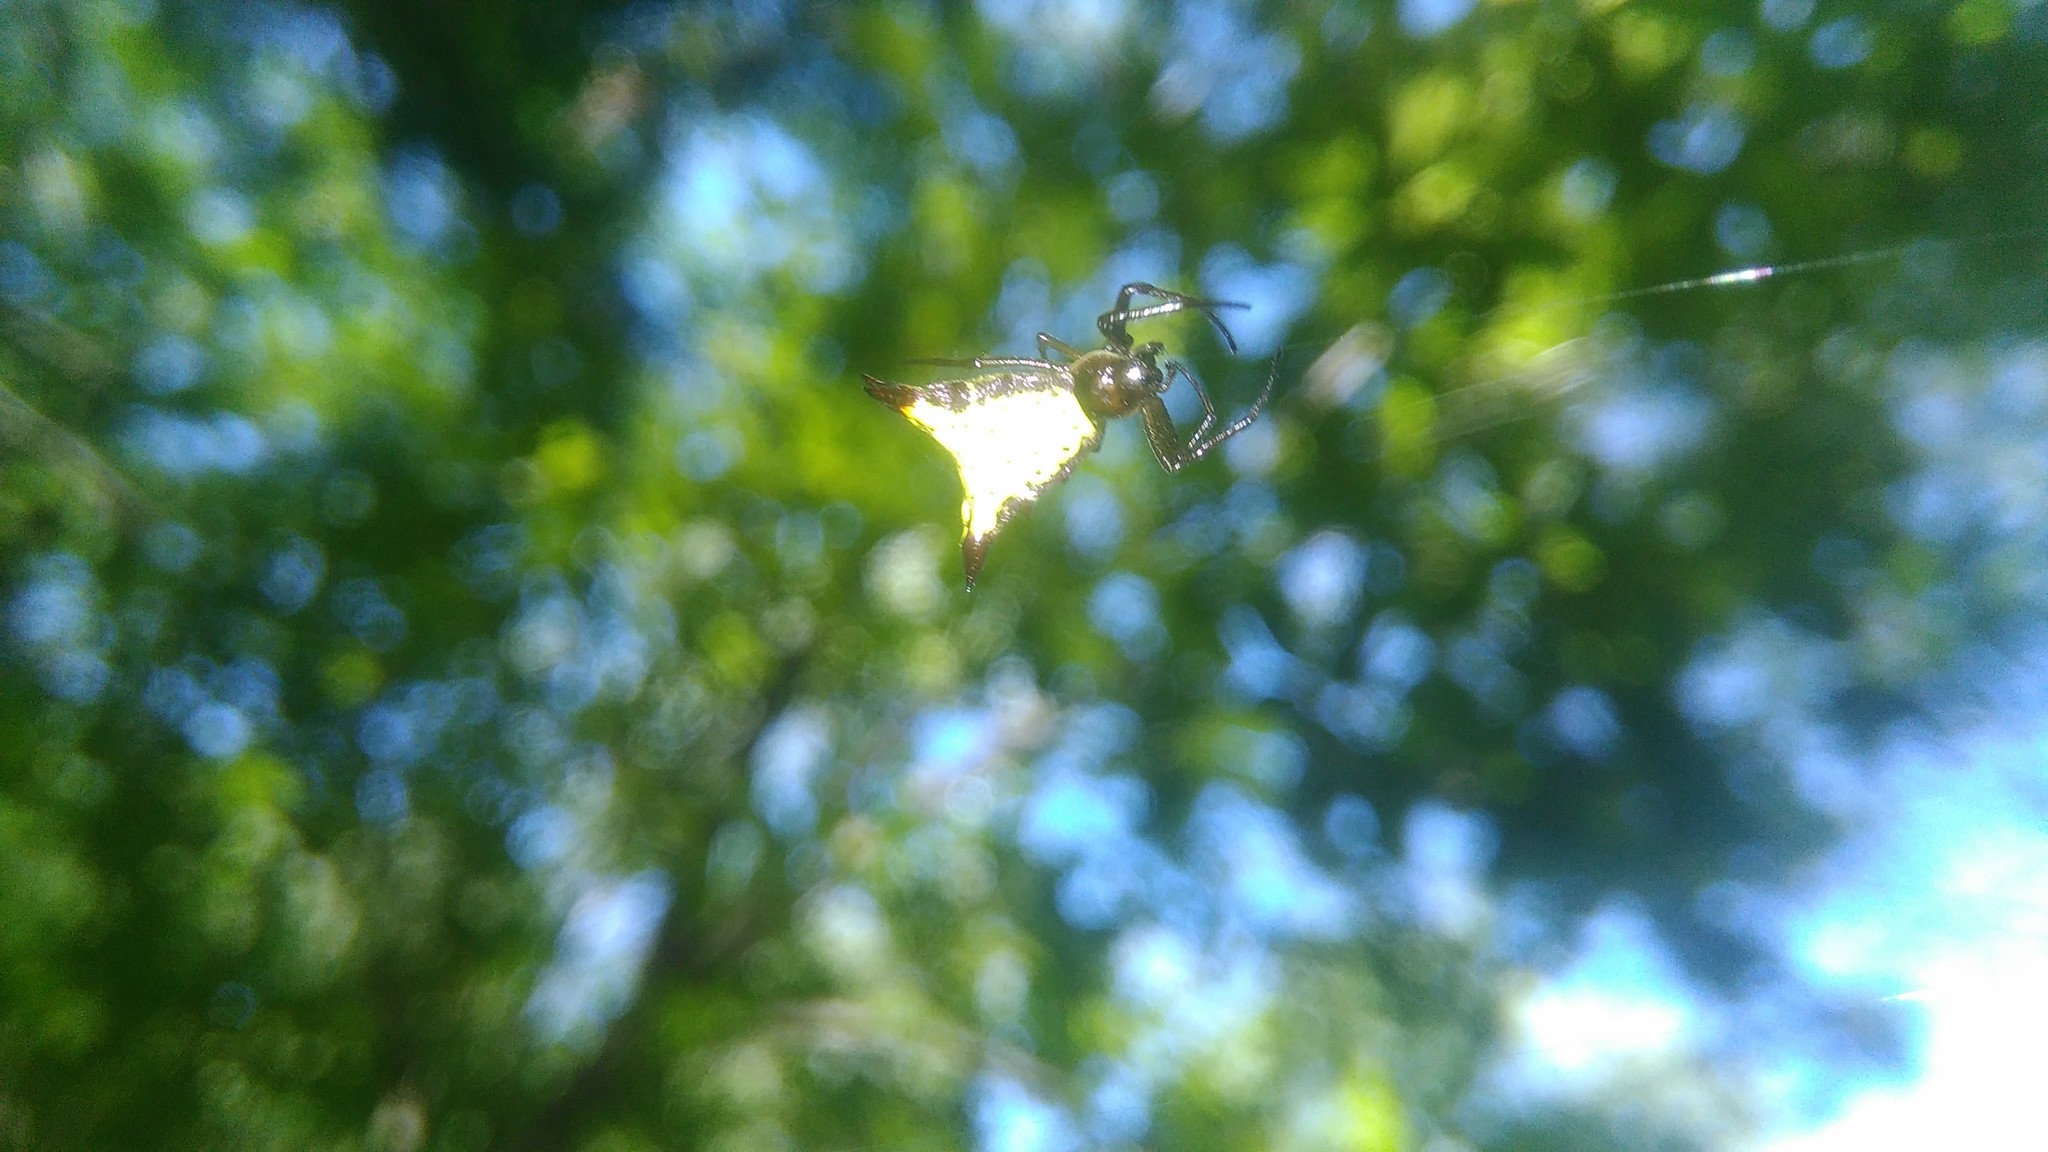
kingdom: Animalia
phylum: Arthropoda
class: Arachnida
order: Araneae
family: Araneidae
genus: Micrathena
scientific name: Micrathena furva
